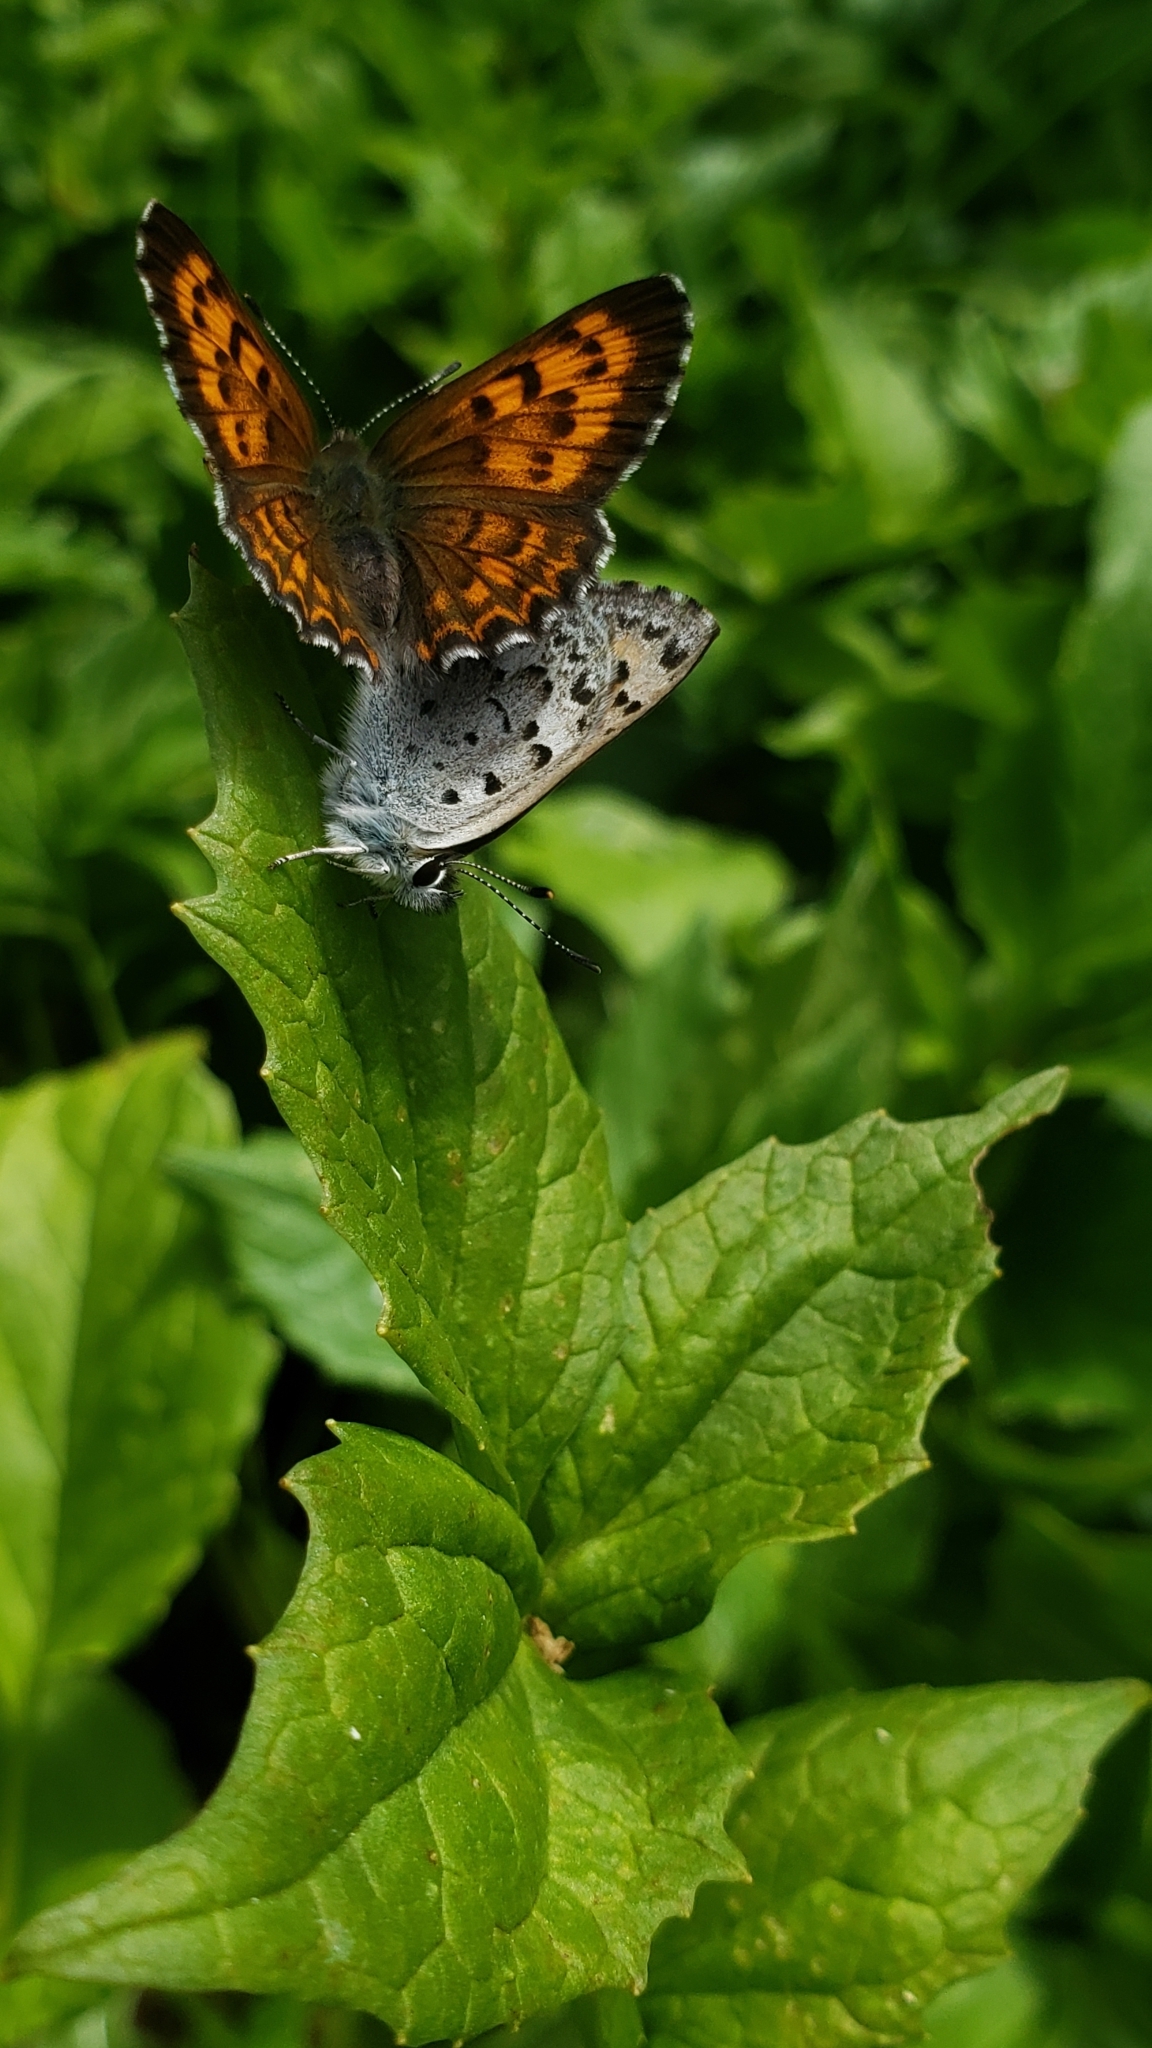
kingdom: Animalia
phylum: Arthropoda
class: Insecta
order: Lepidoptera
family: Lycaenidae
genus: Tharsalea
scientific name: Tharsalea mariposa
